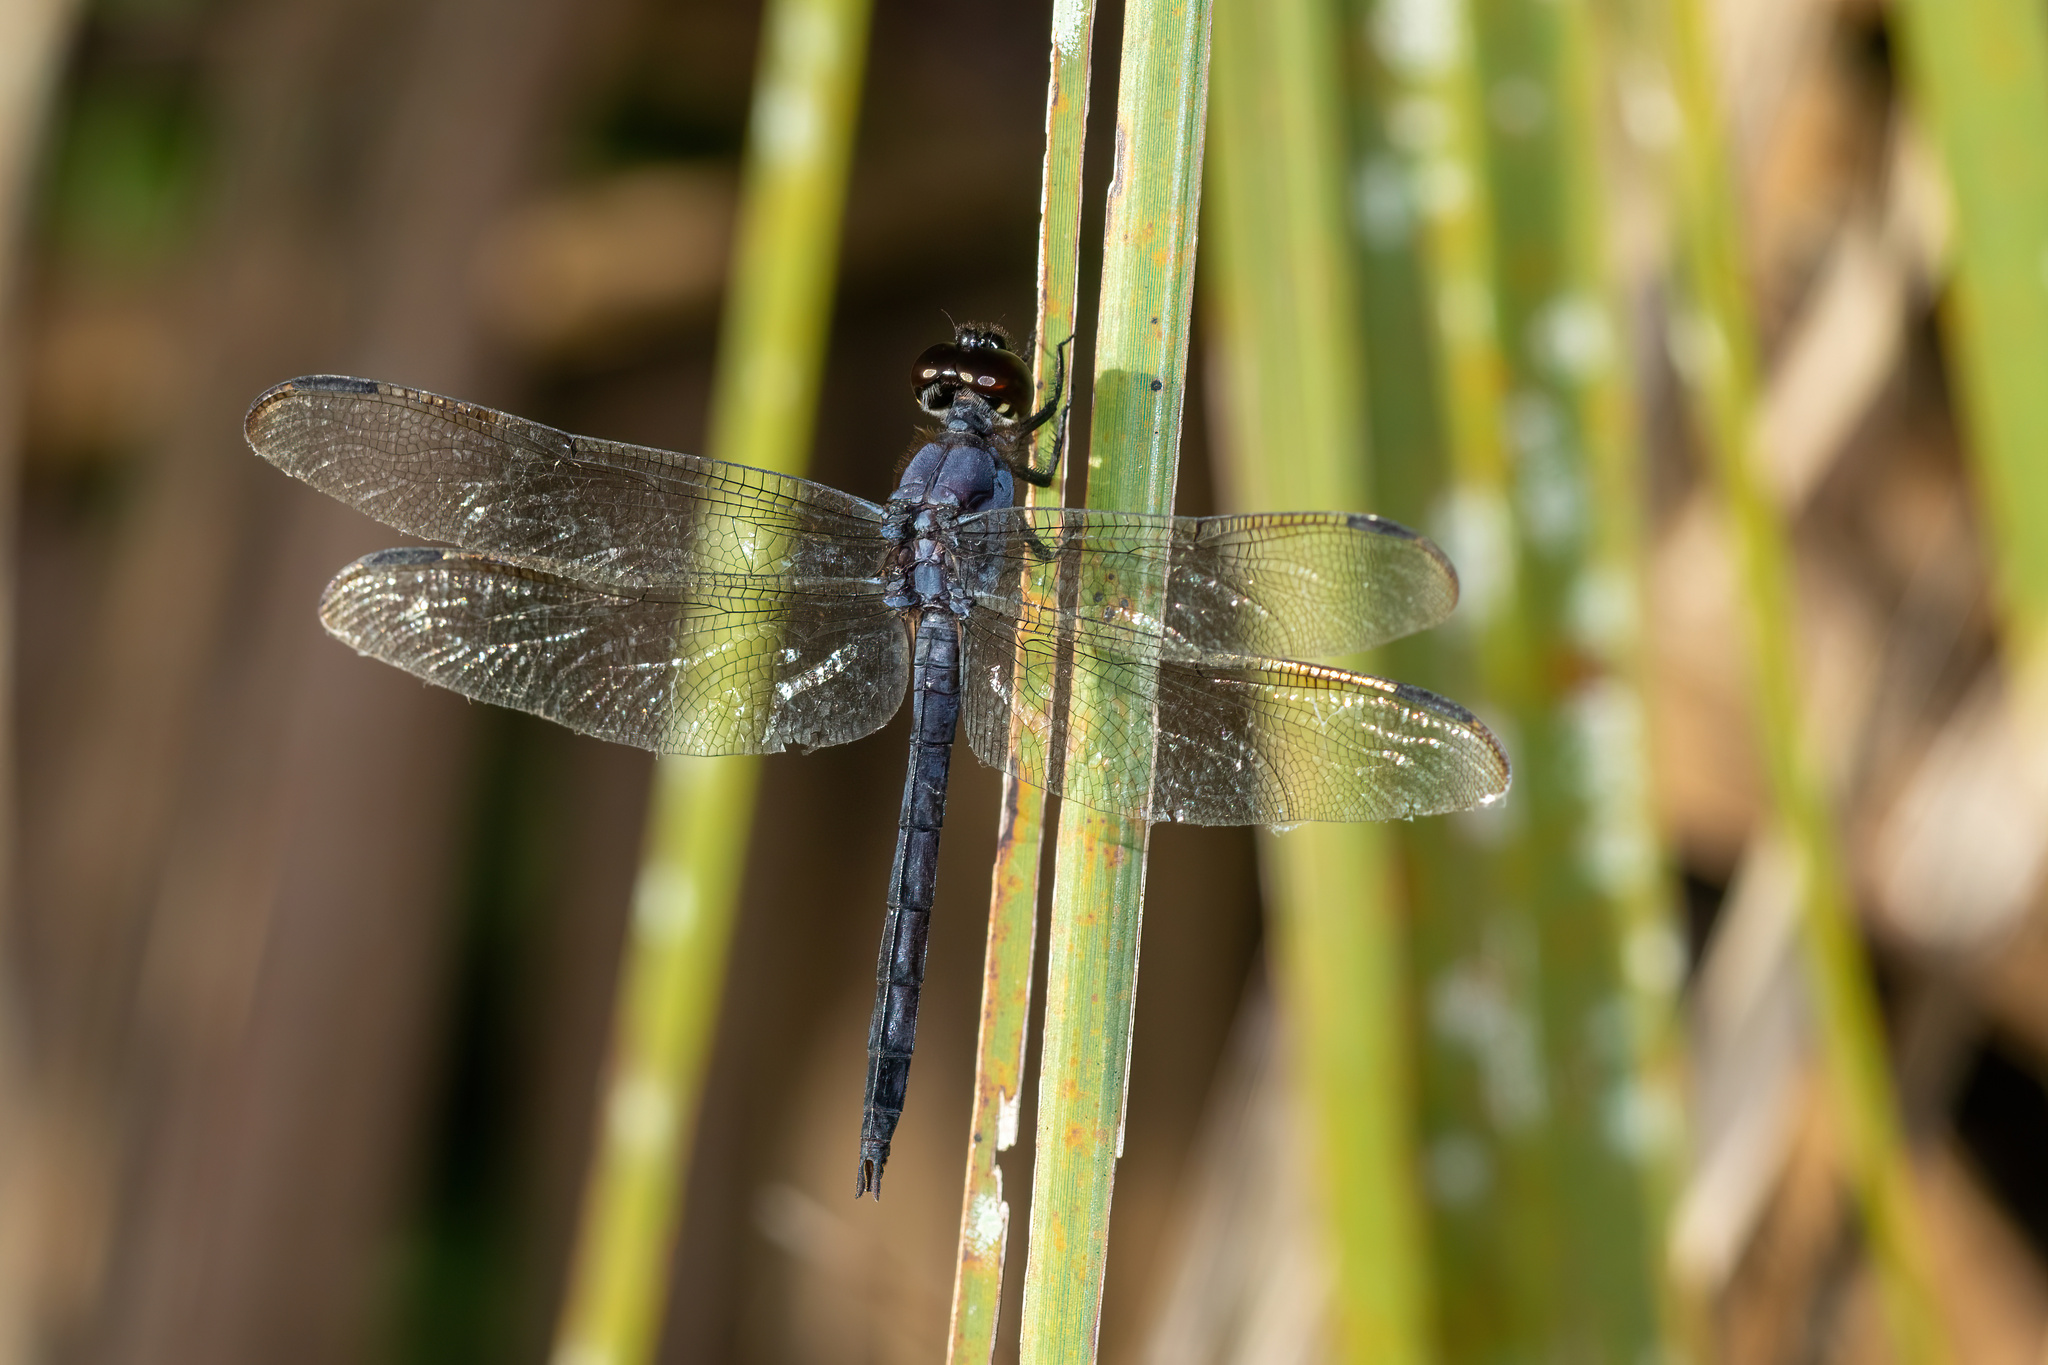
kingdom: Animalia
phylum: Arthropoda
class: Insecta
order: Odonata
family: Libellulidae
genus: Libellula
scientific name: Libellula incesta
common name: Slaty skimmer
